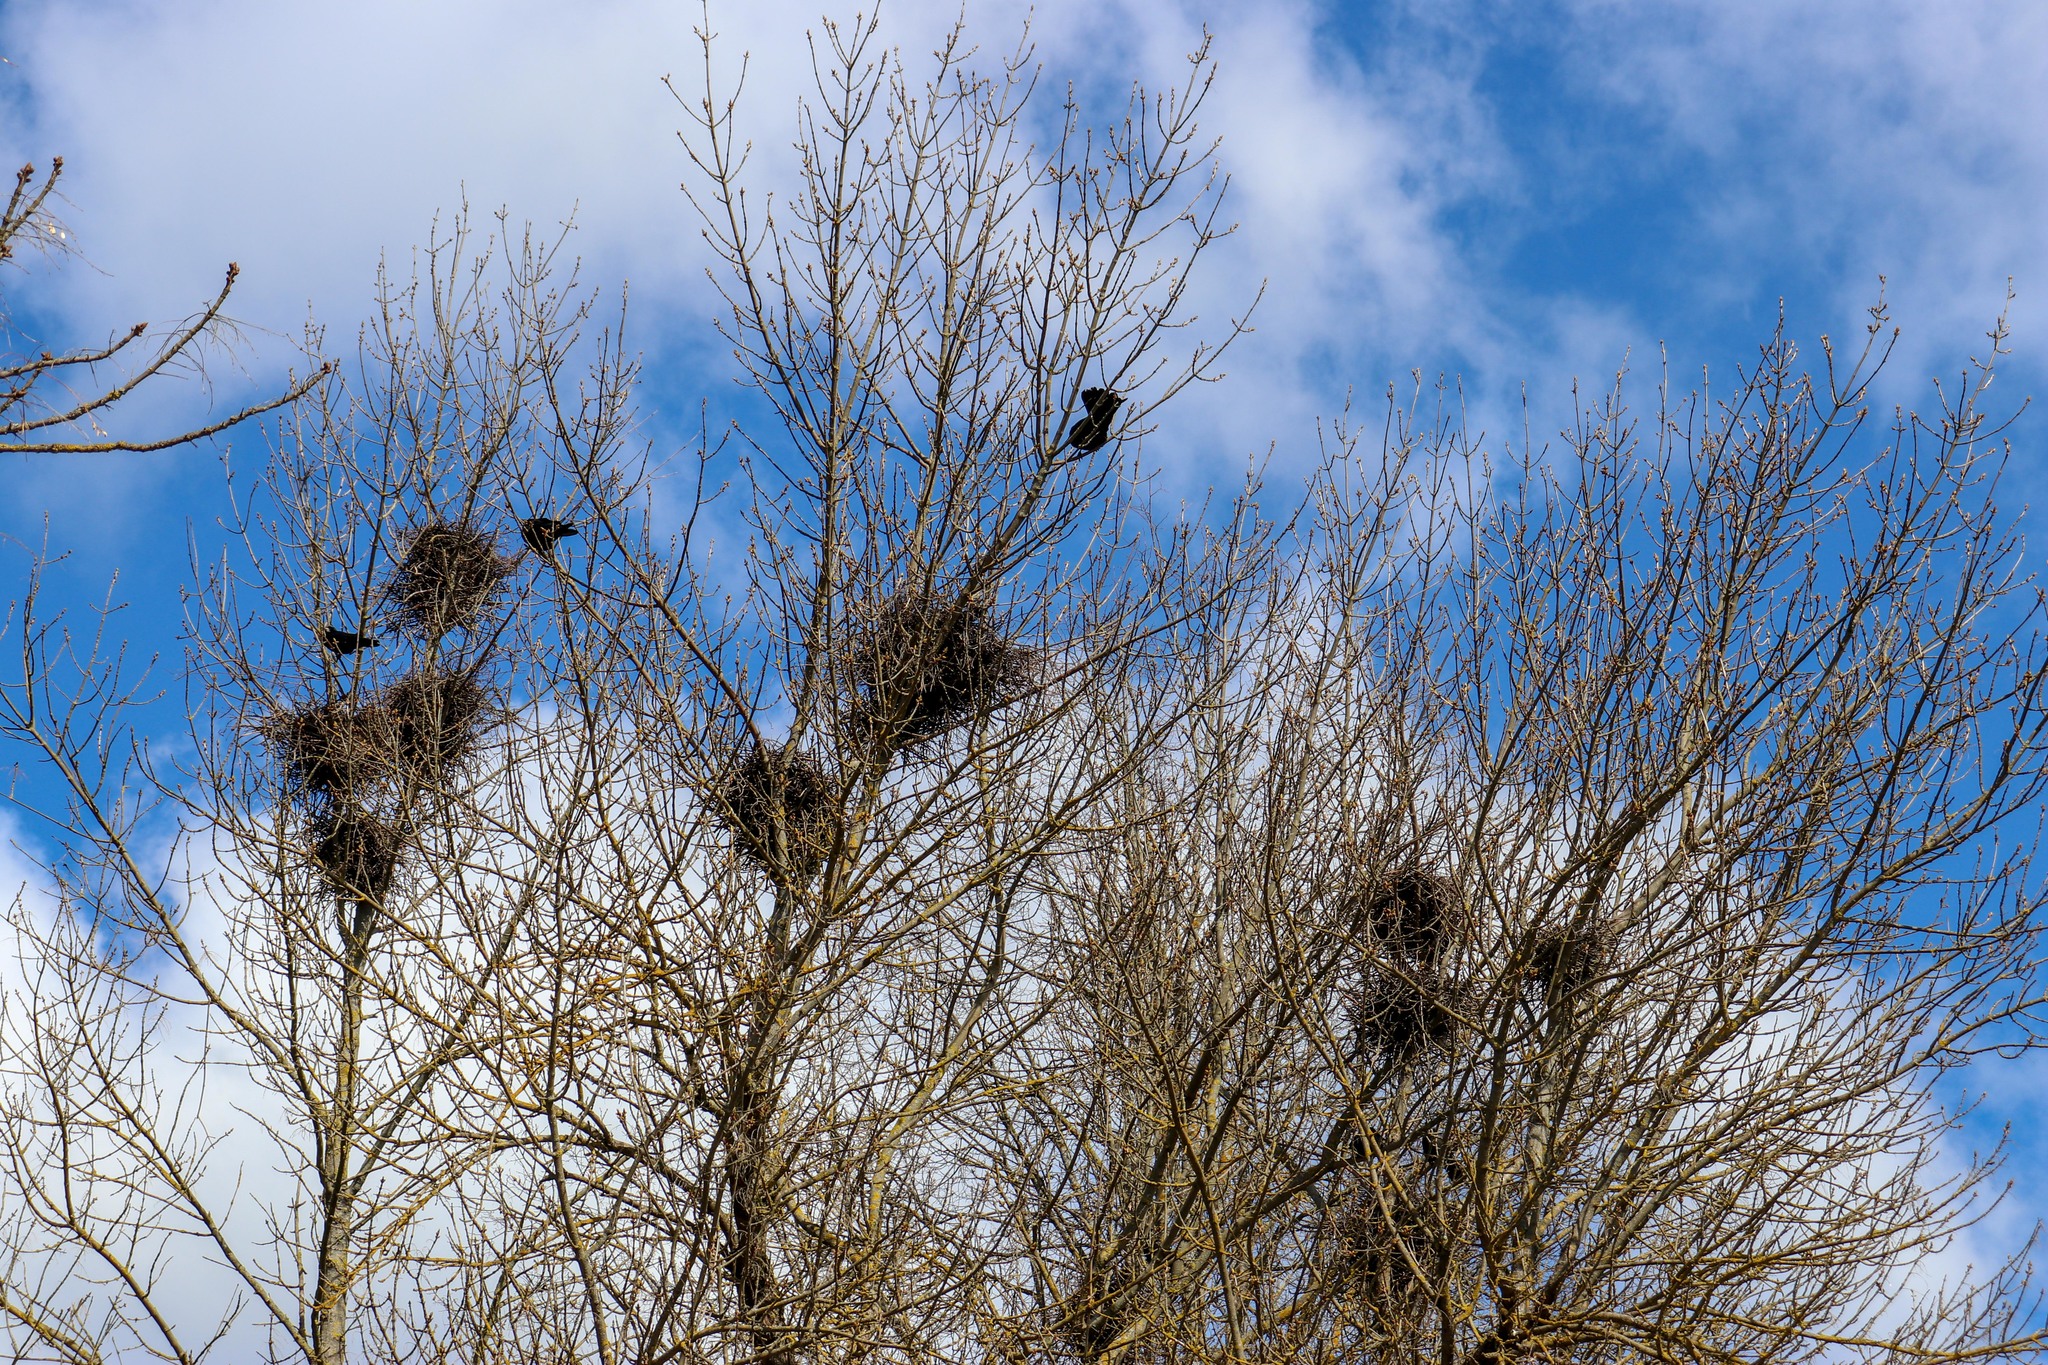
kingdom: Animalia
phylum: Chordata
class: Aves
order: Passeriformes
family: Corvidae
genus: Corvus
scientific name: Corvus frugilegus
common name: Rook
